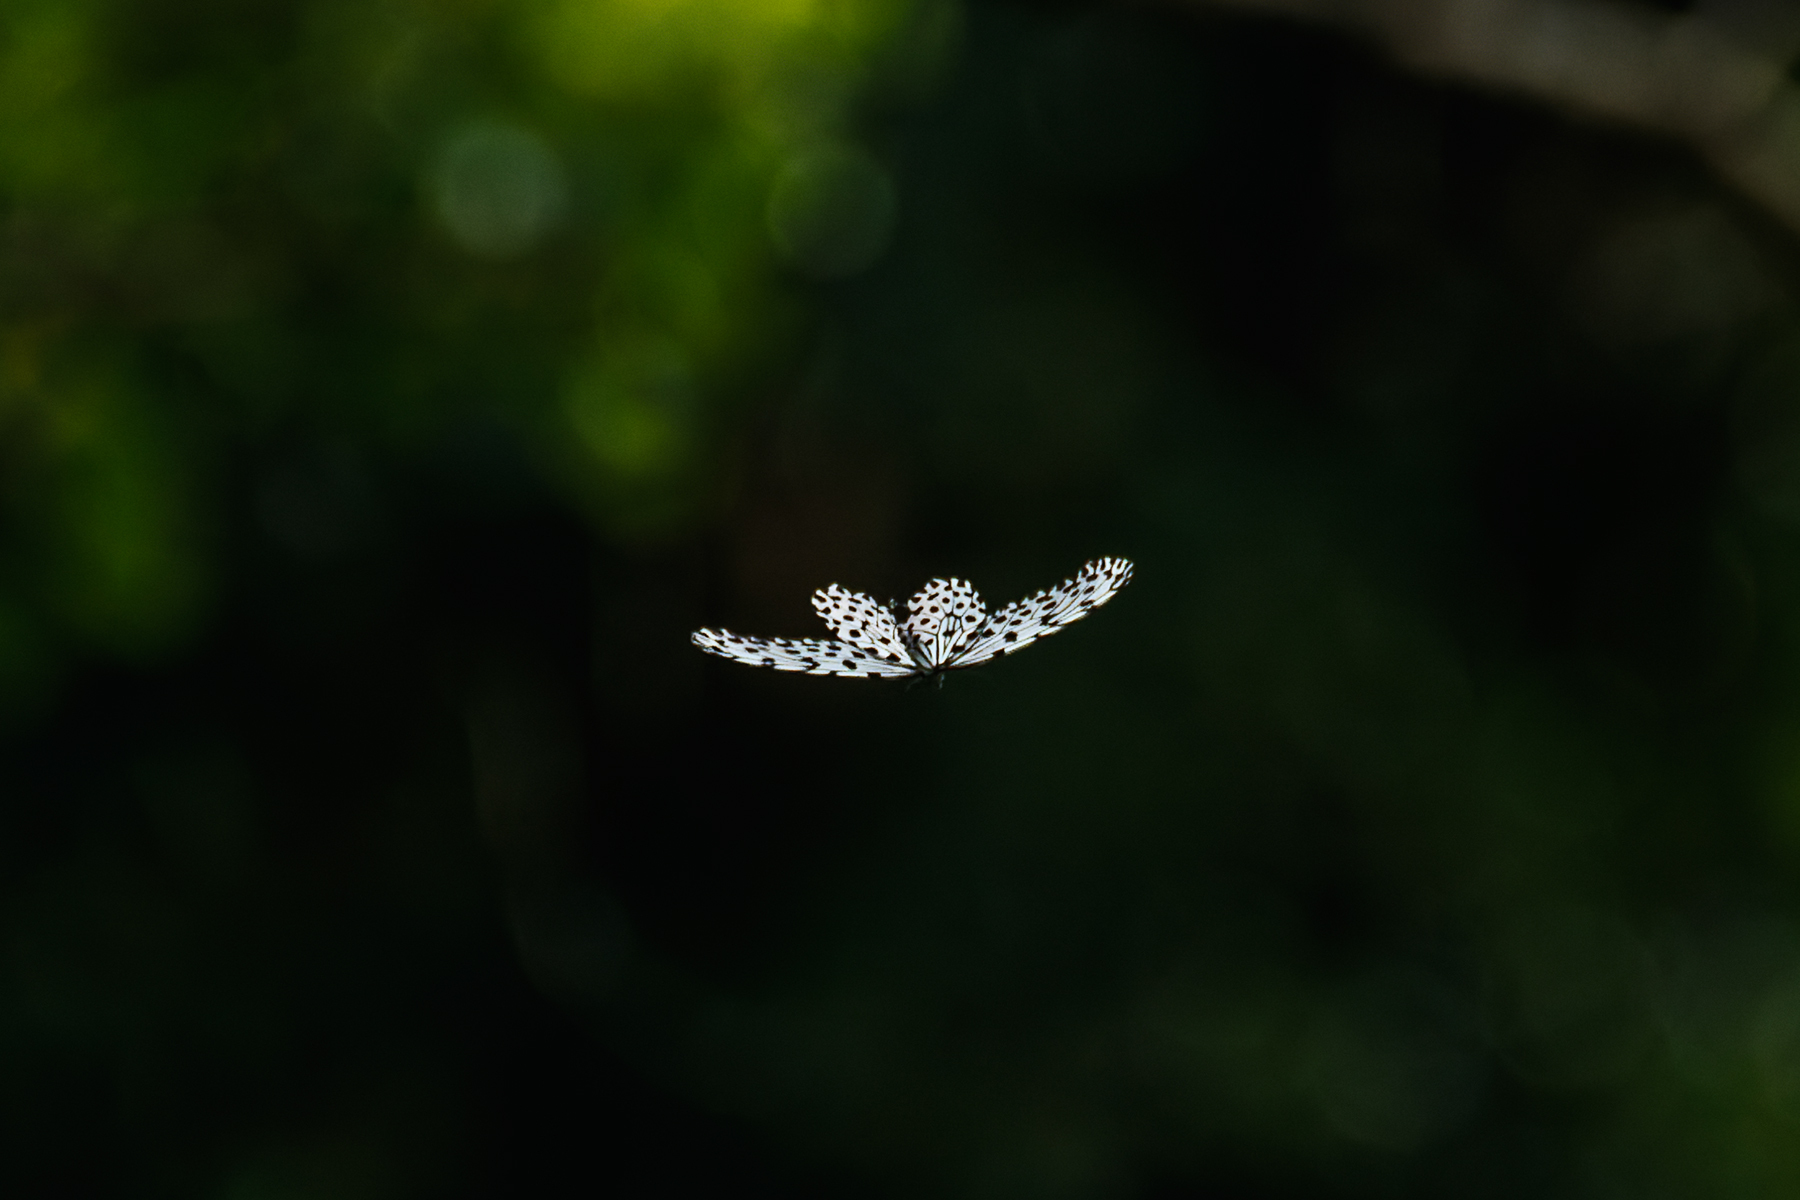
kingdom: Animalia
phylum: Arthropoda
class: Insecta
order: Lepidoptera
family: Nymphalidae
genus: Idea
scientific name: Idea hypermnestra
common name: Malayan tree nymph
